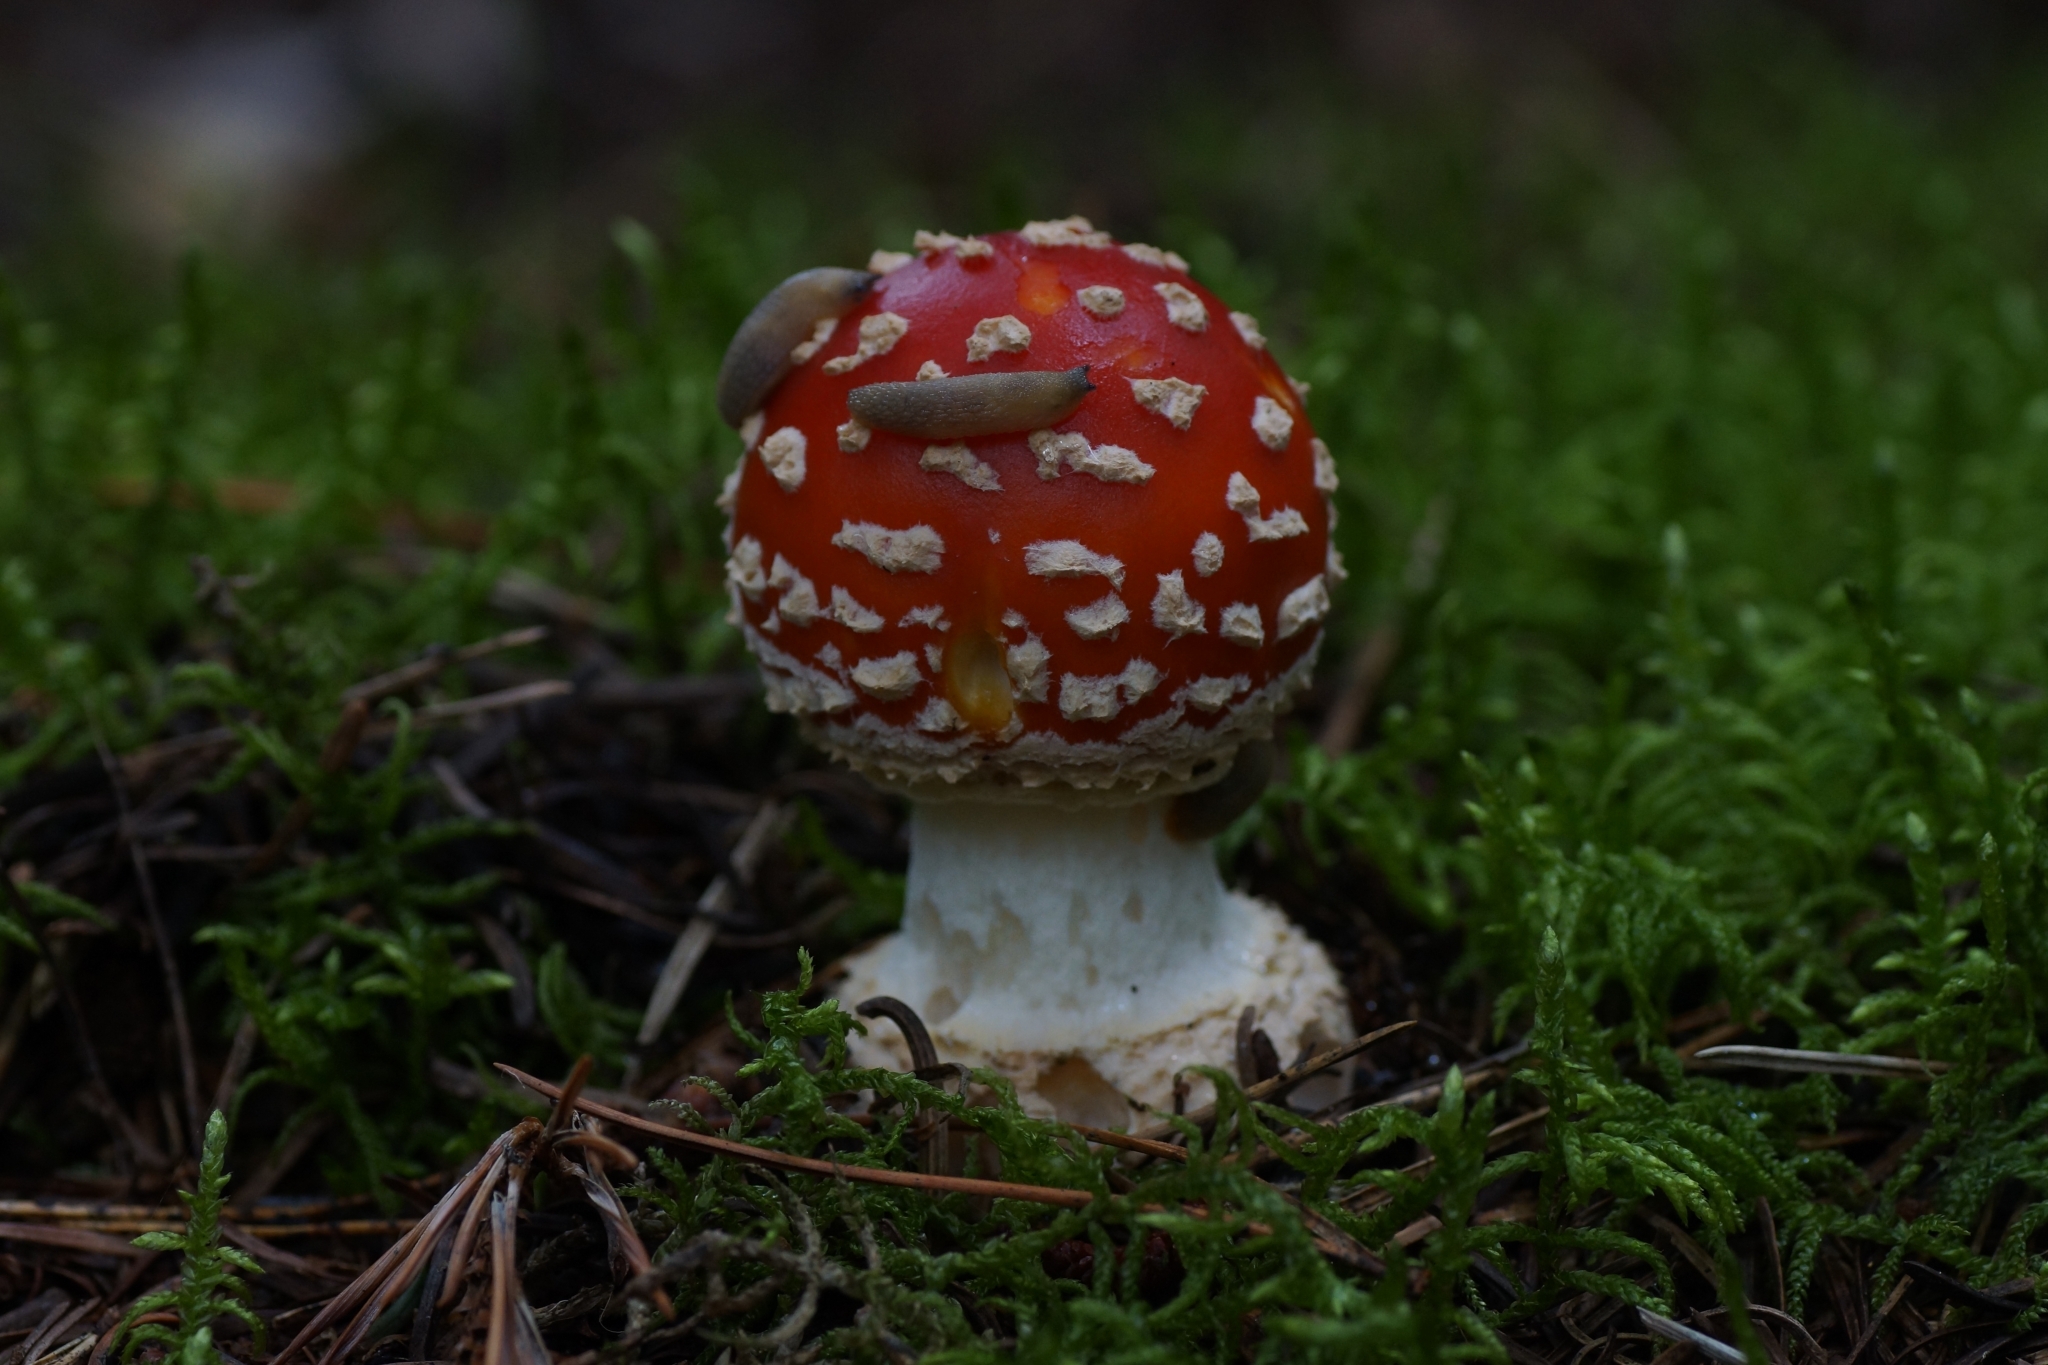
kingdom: Fungi
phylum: Basidiomycota
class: Agaricomycetes
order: Agaricales
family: Amanitaceae
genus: Amanita
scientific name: Amanita muscaria
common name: Fly agaric
